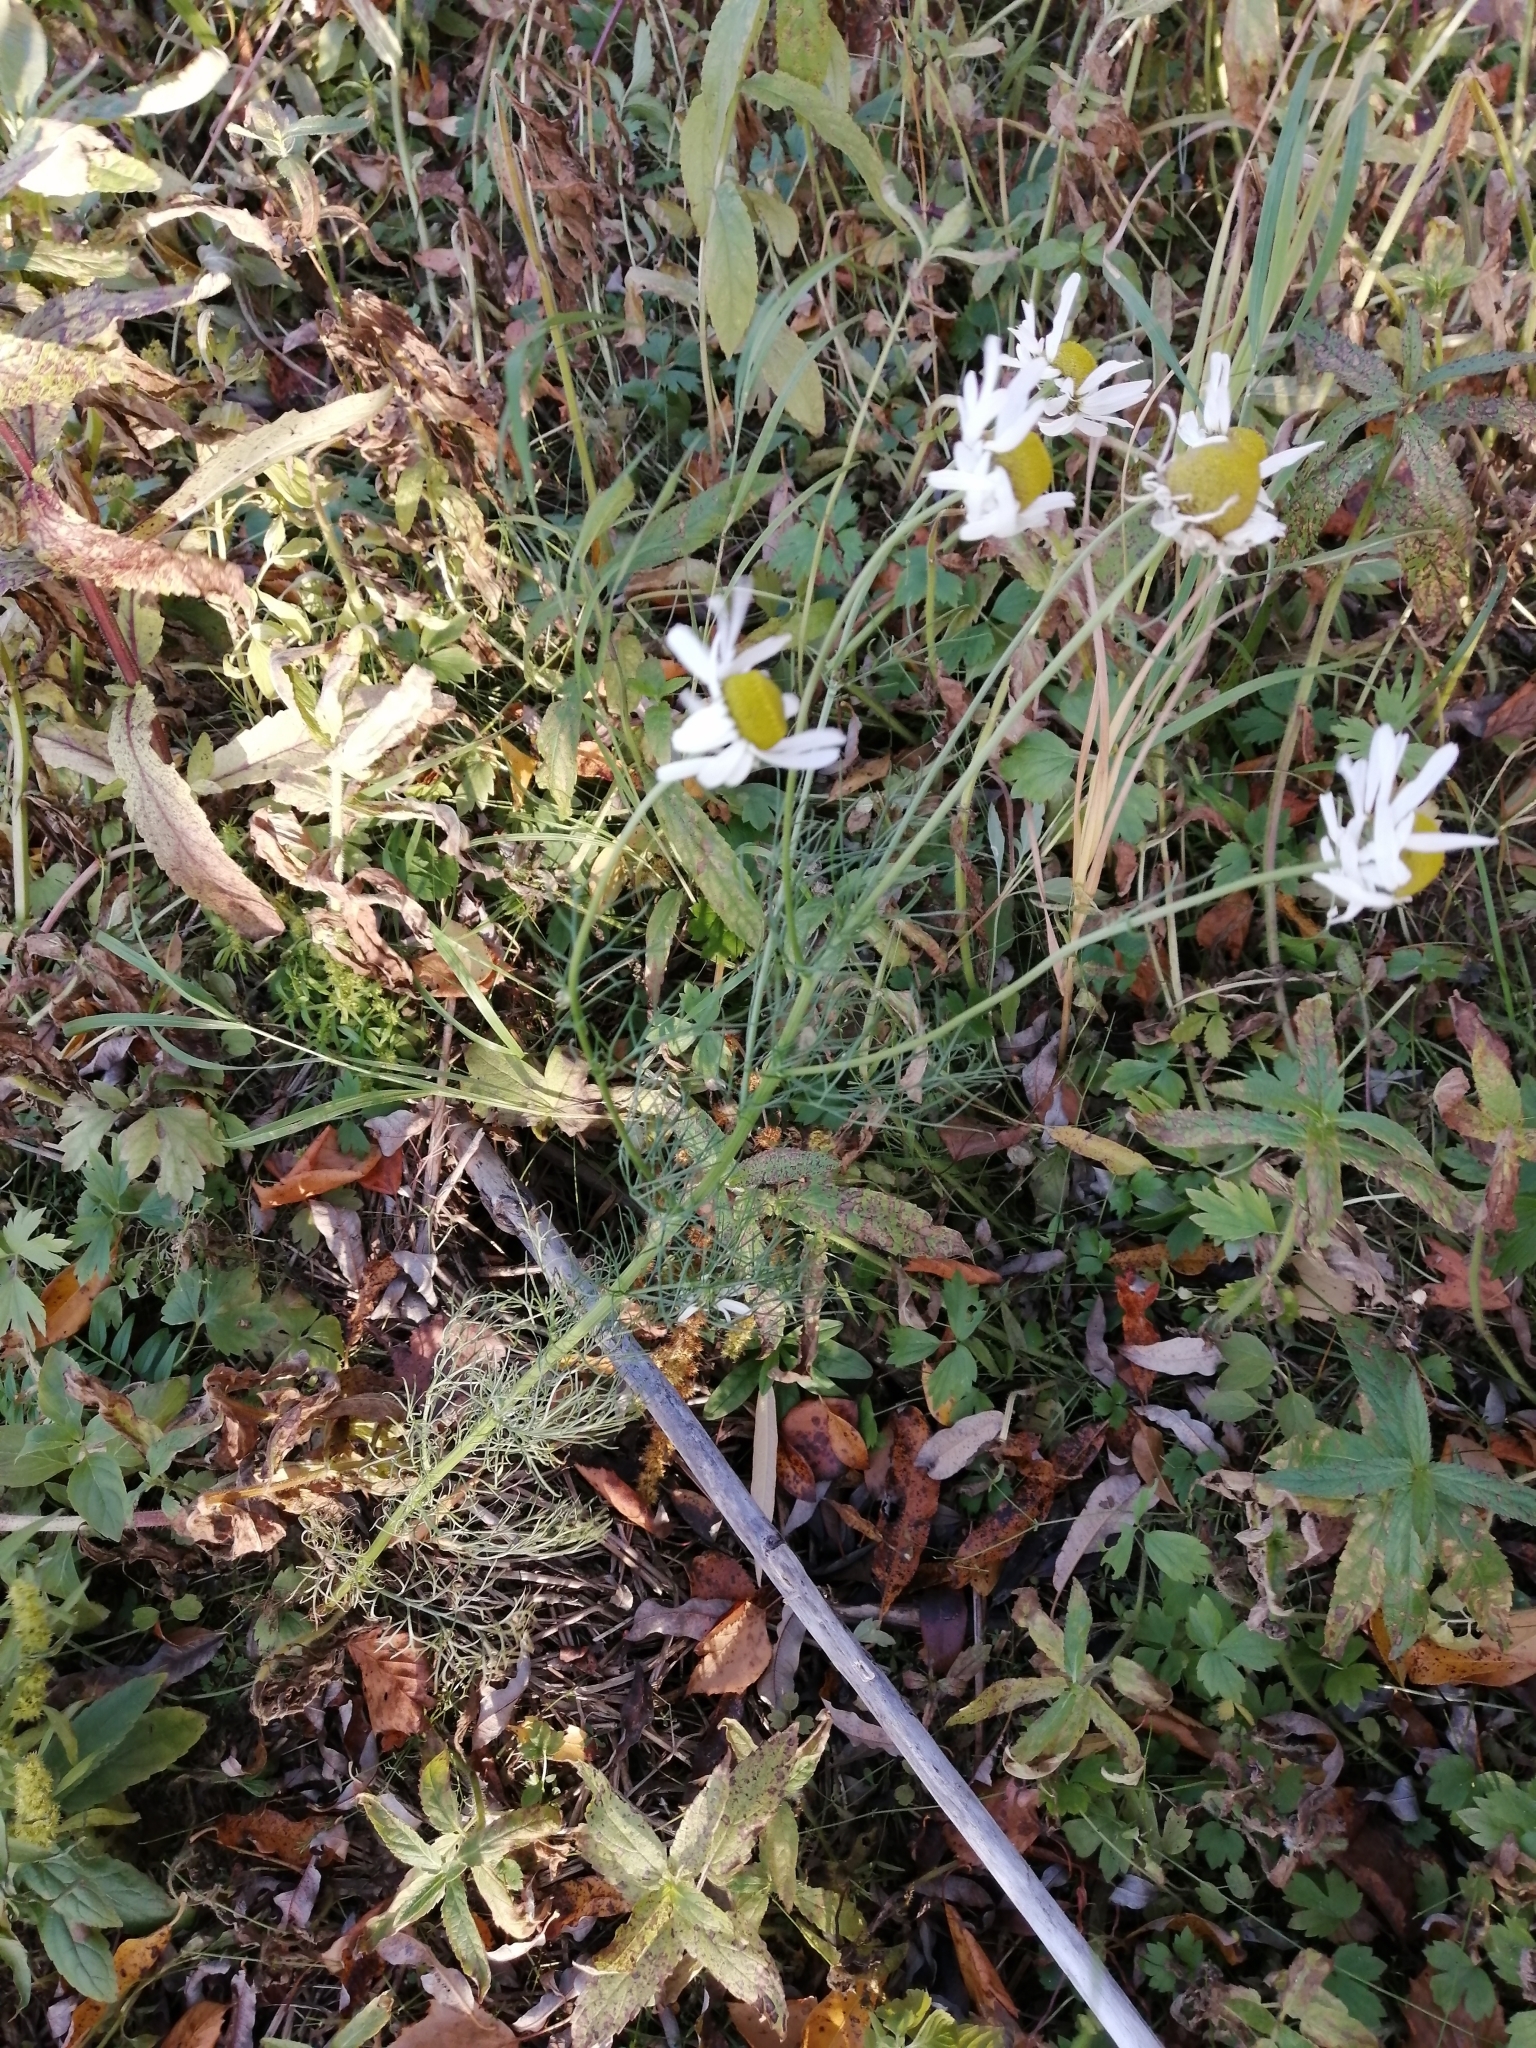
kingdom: Plantae
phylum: Tracheophyta
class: Magnoliopsida
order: Asterales
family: Asteraceae
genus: Tripleurospermum
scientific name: Tripleurospermum inodorum
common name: Scentless mayweed
